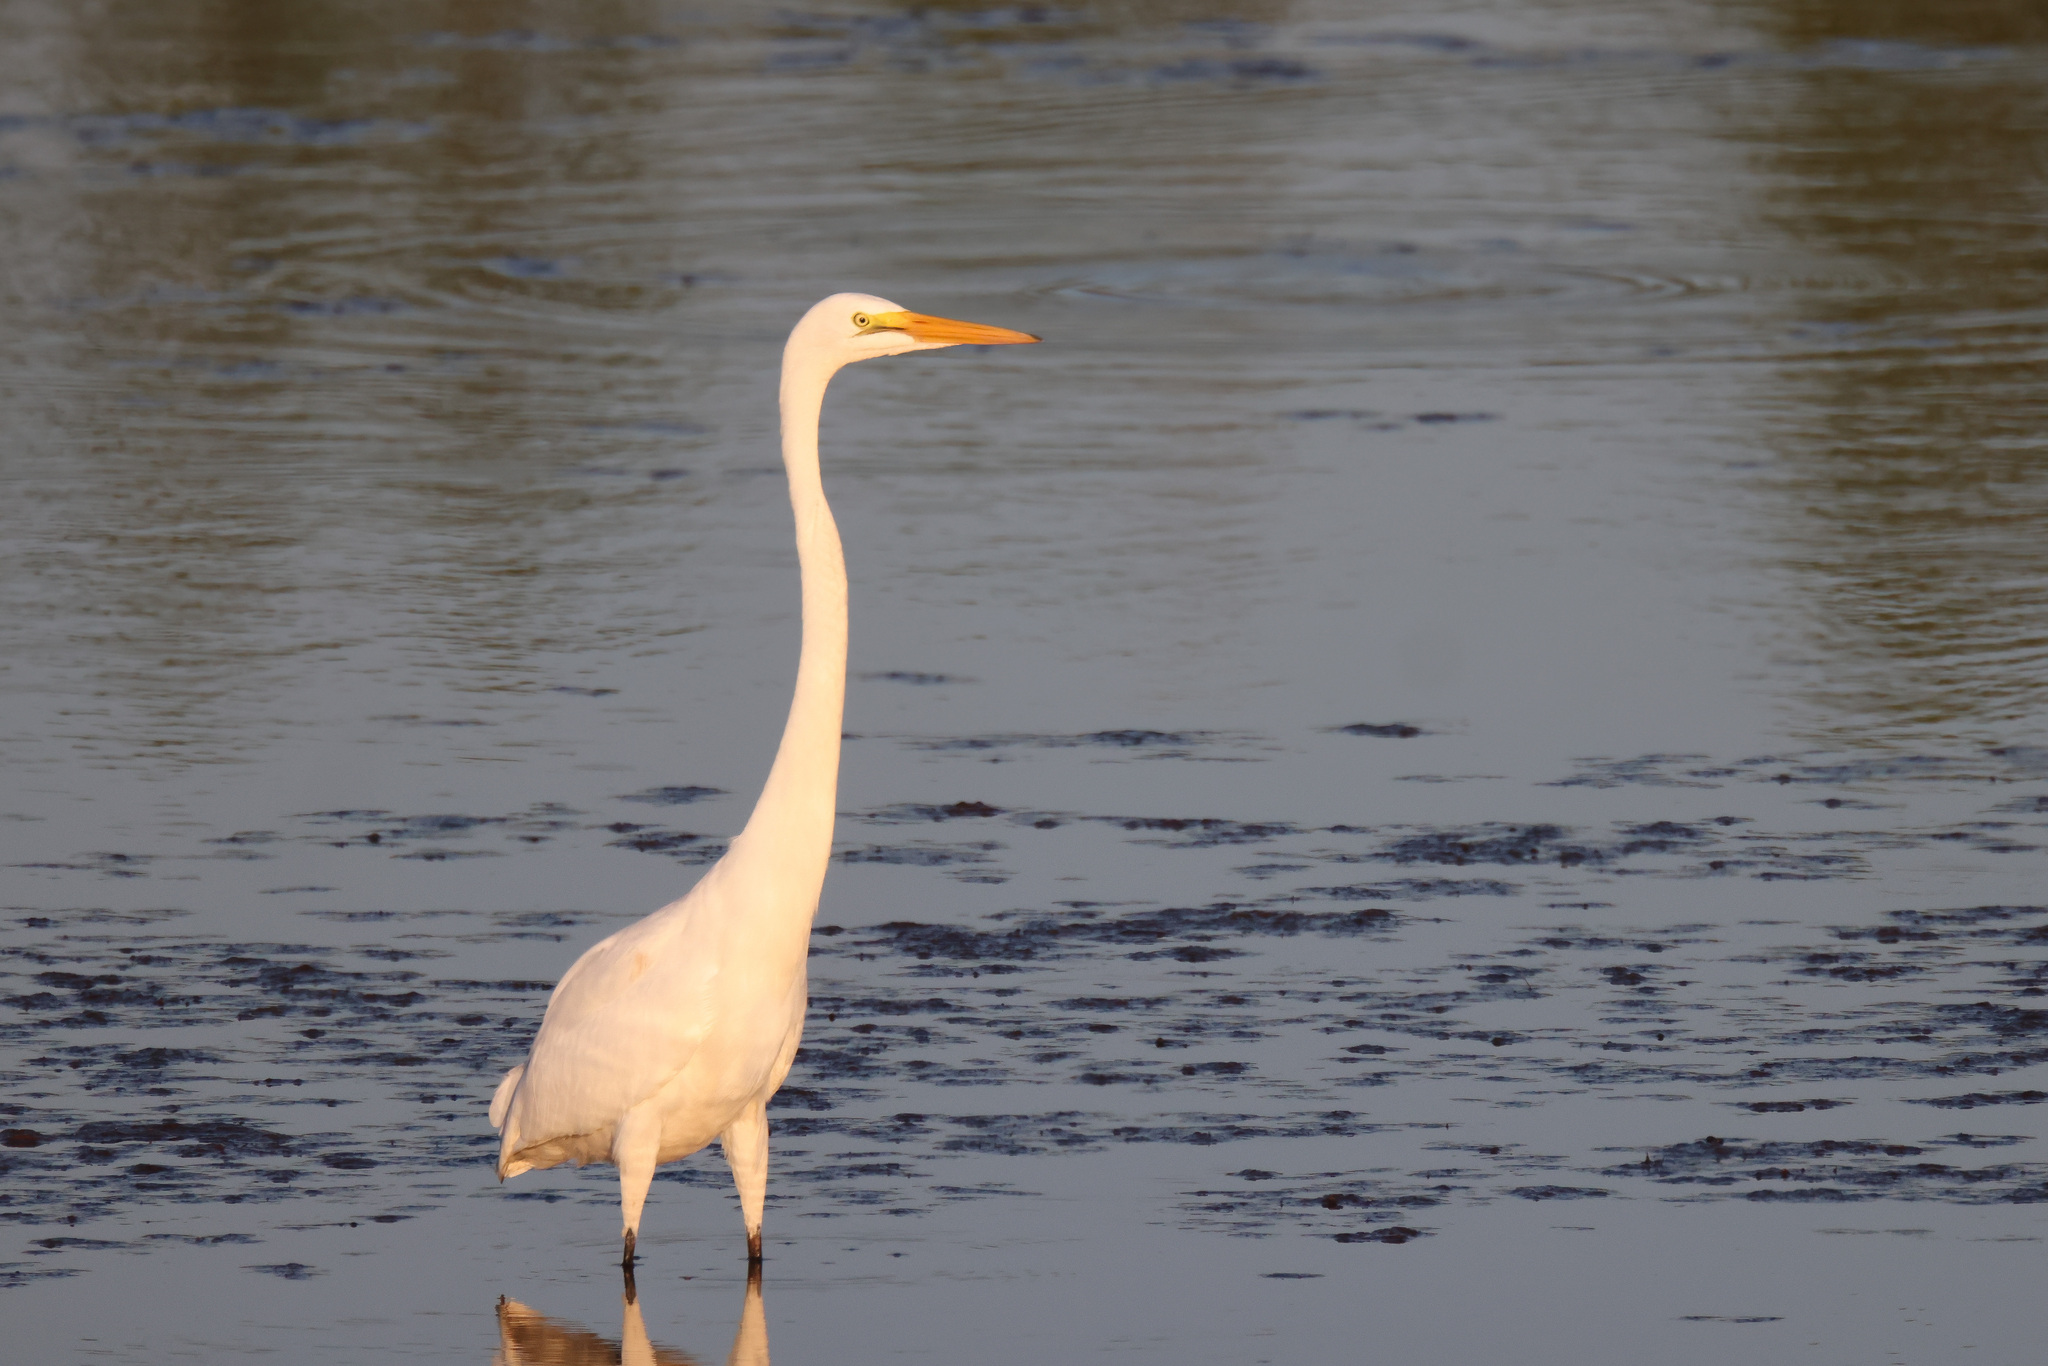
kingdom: Animalia
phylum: Chordata
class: Aves
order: Pelecaniformes
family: Ardeidae
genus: Ardea
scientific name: Ardea alba
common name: Great egret
